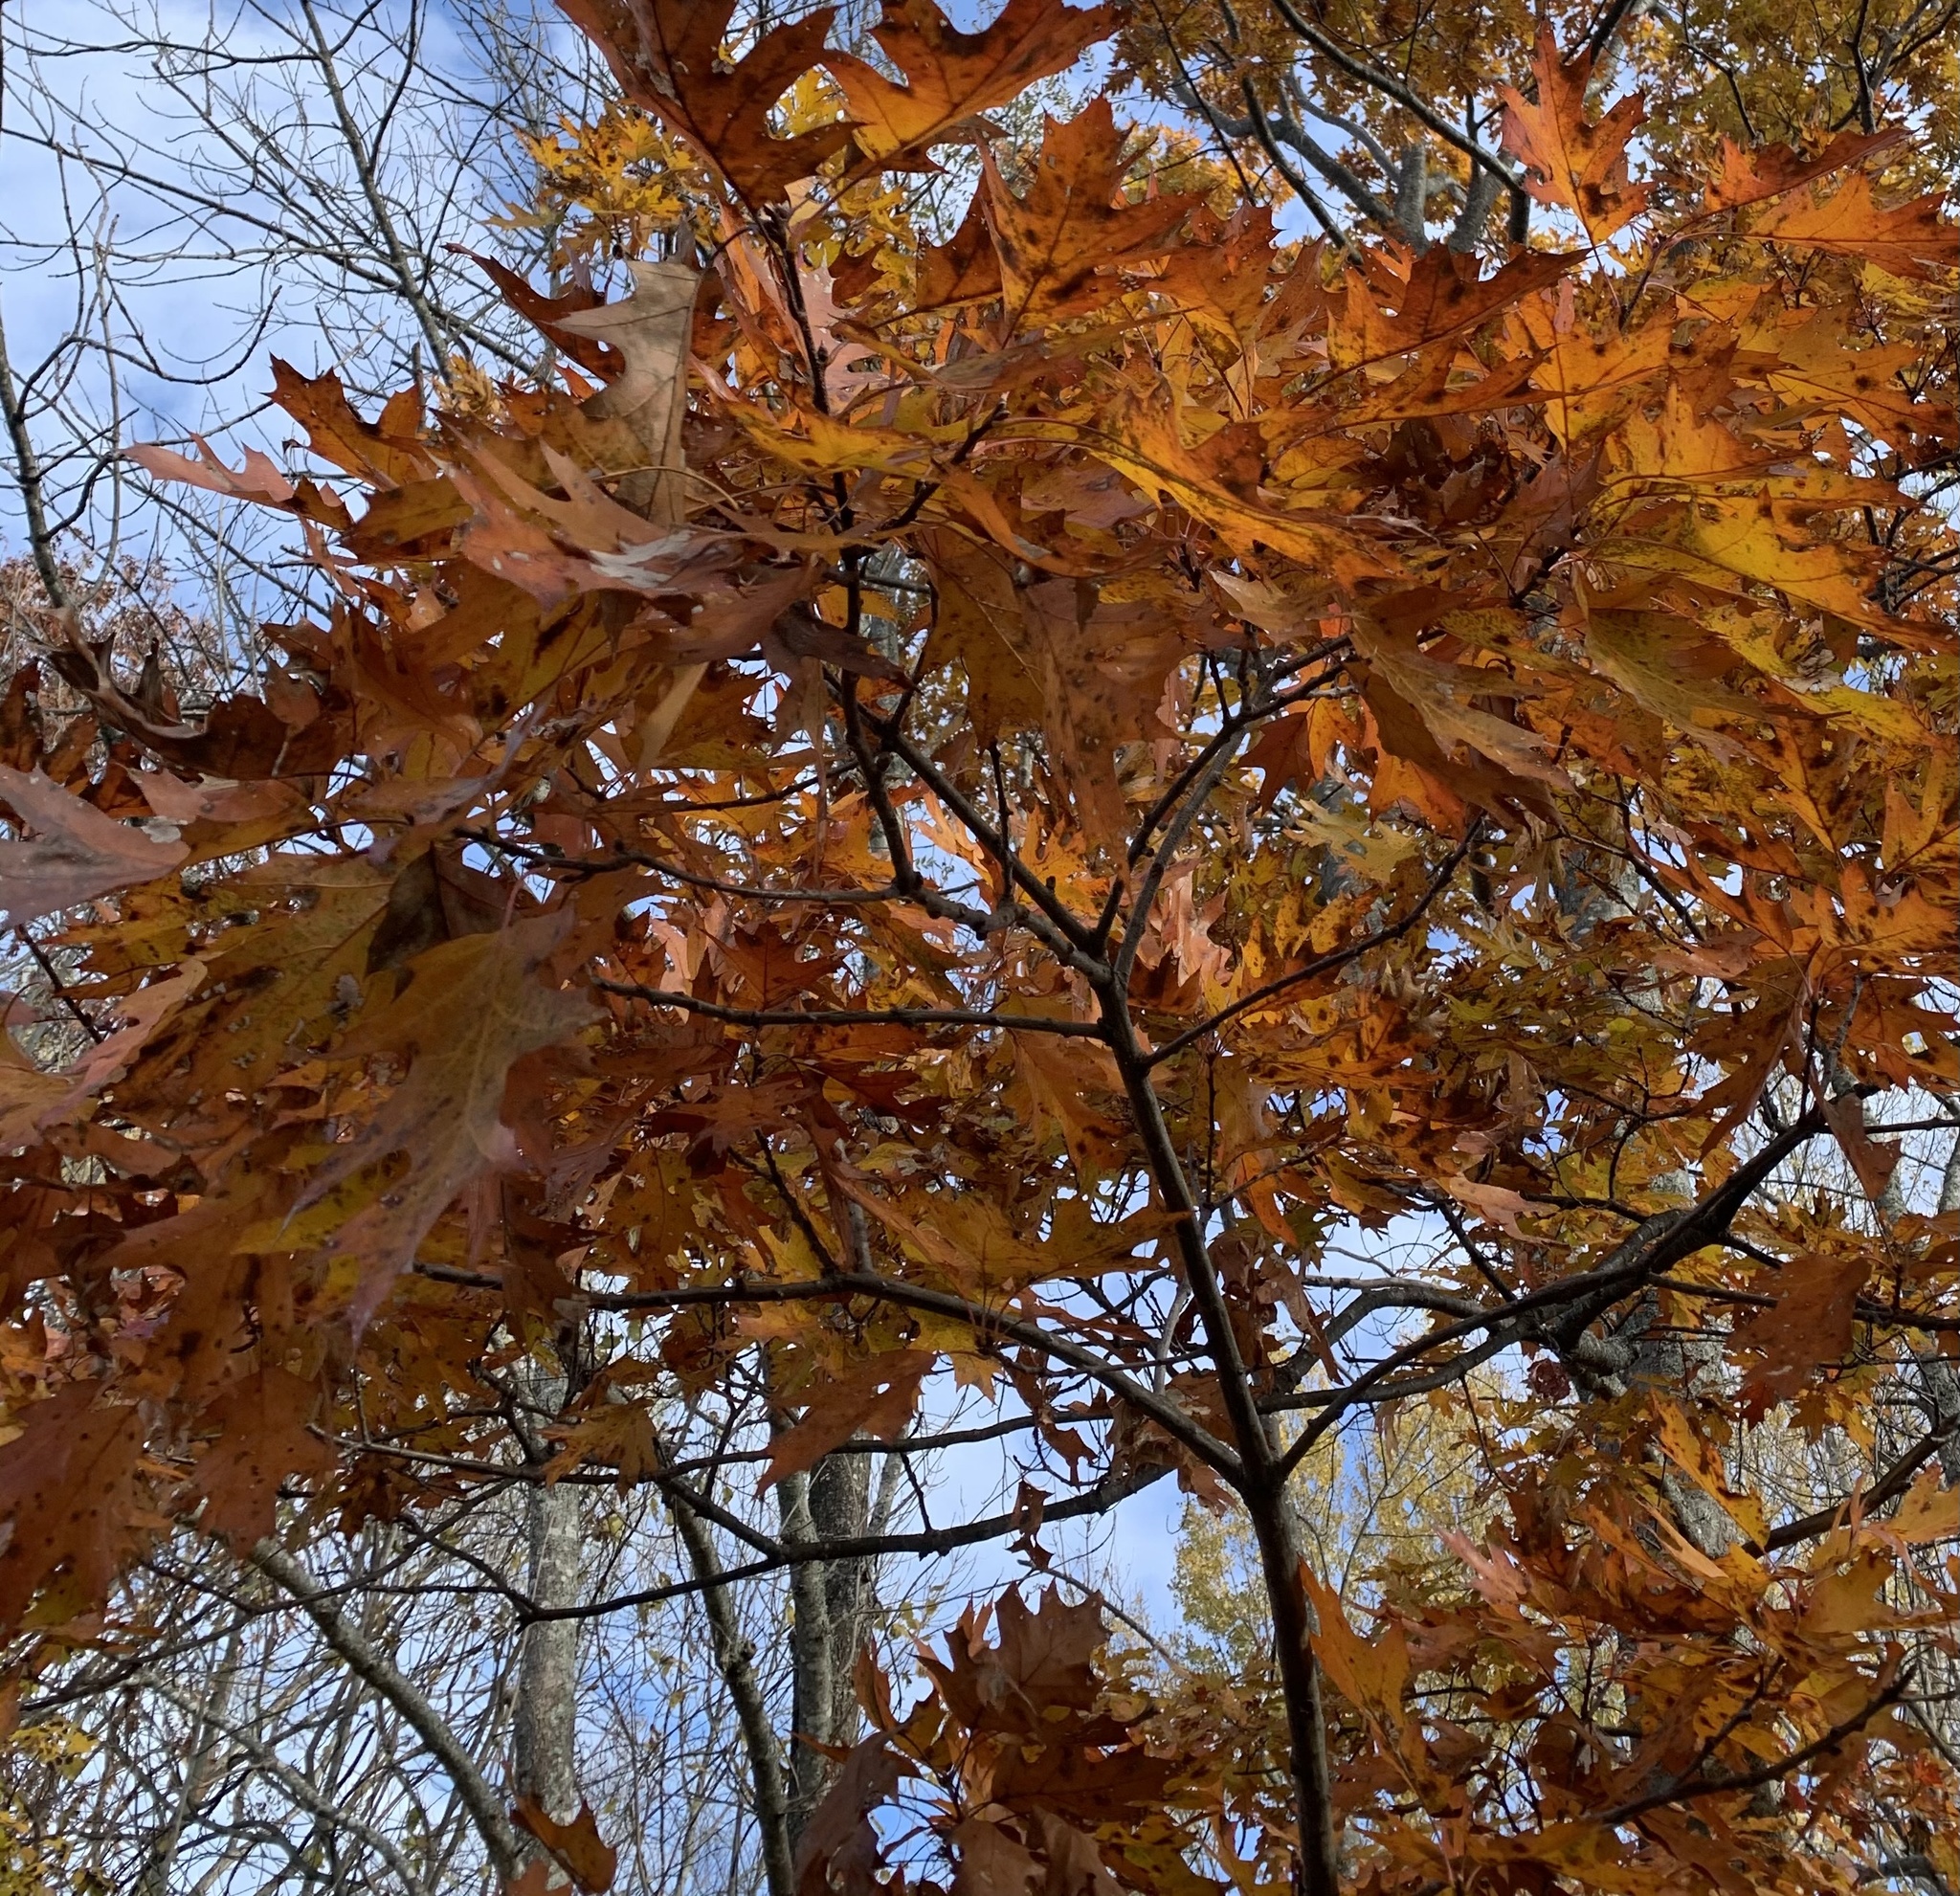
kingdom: Plantae
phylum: Tracheophyta
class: Magnoliopsida
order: Fagales
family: Fagaceae
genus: Quercus
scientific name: Quercus rubra
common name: Red oak
